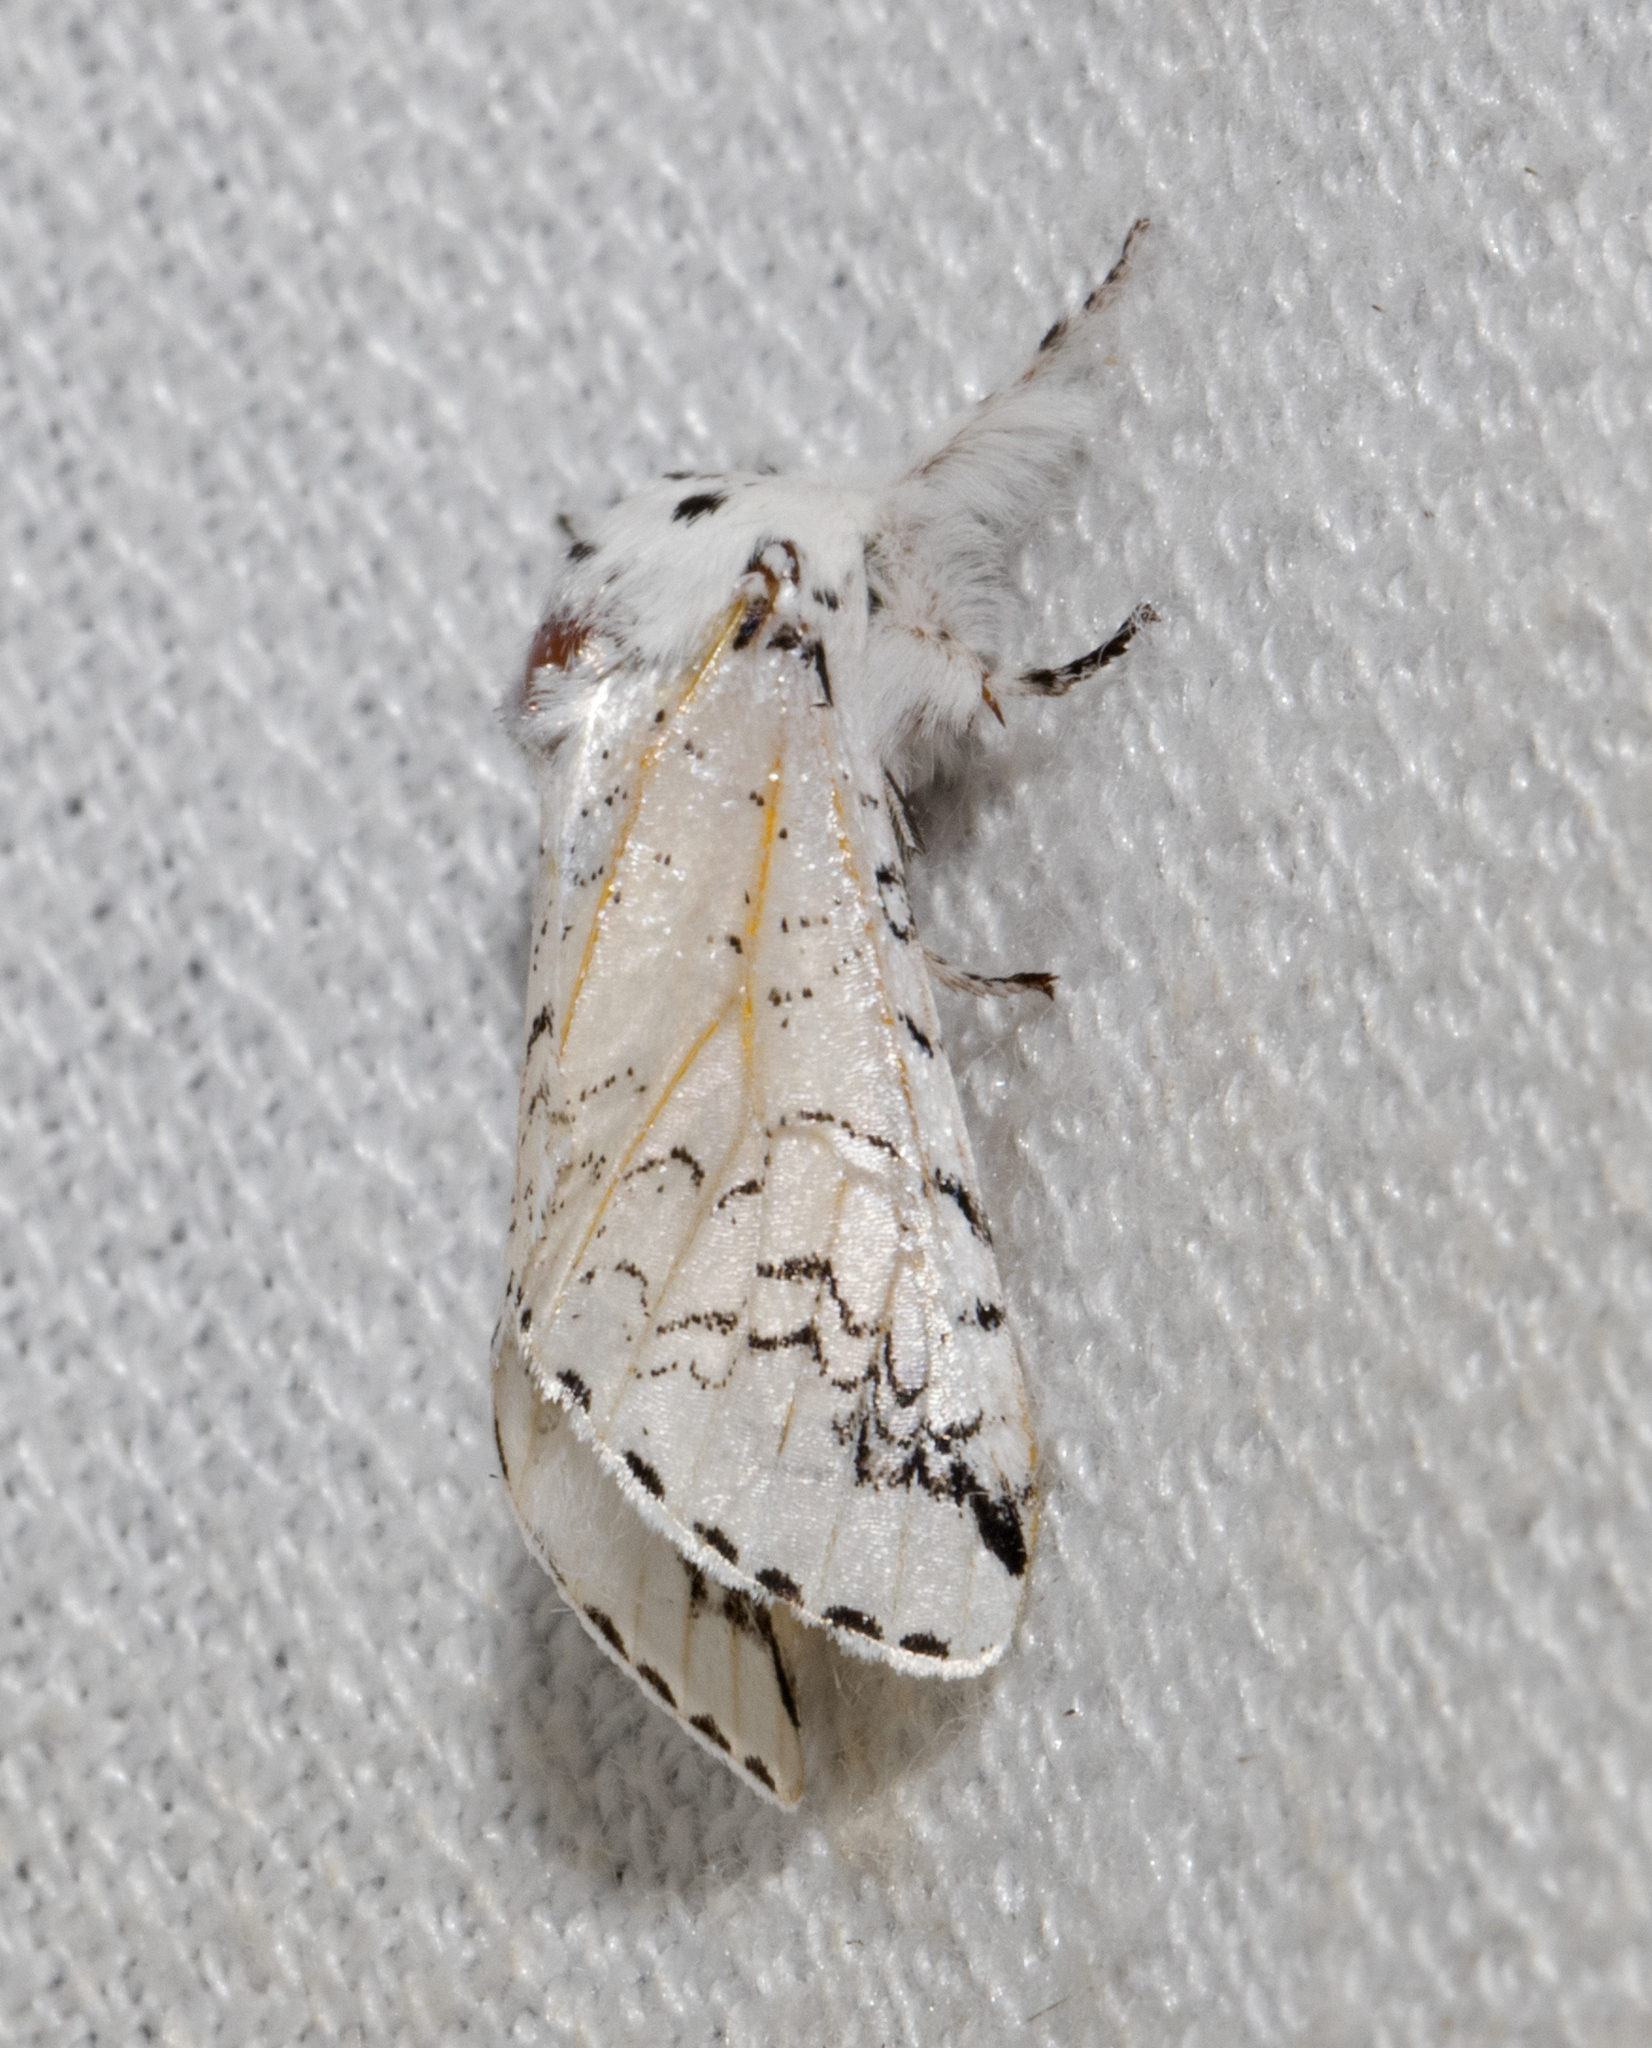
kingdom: Animalia
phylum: Arthropoda
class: Insecta
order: Lepidoptera
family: Notodontidae
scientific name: Notodontidae
